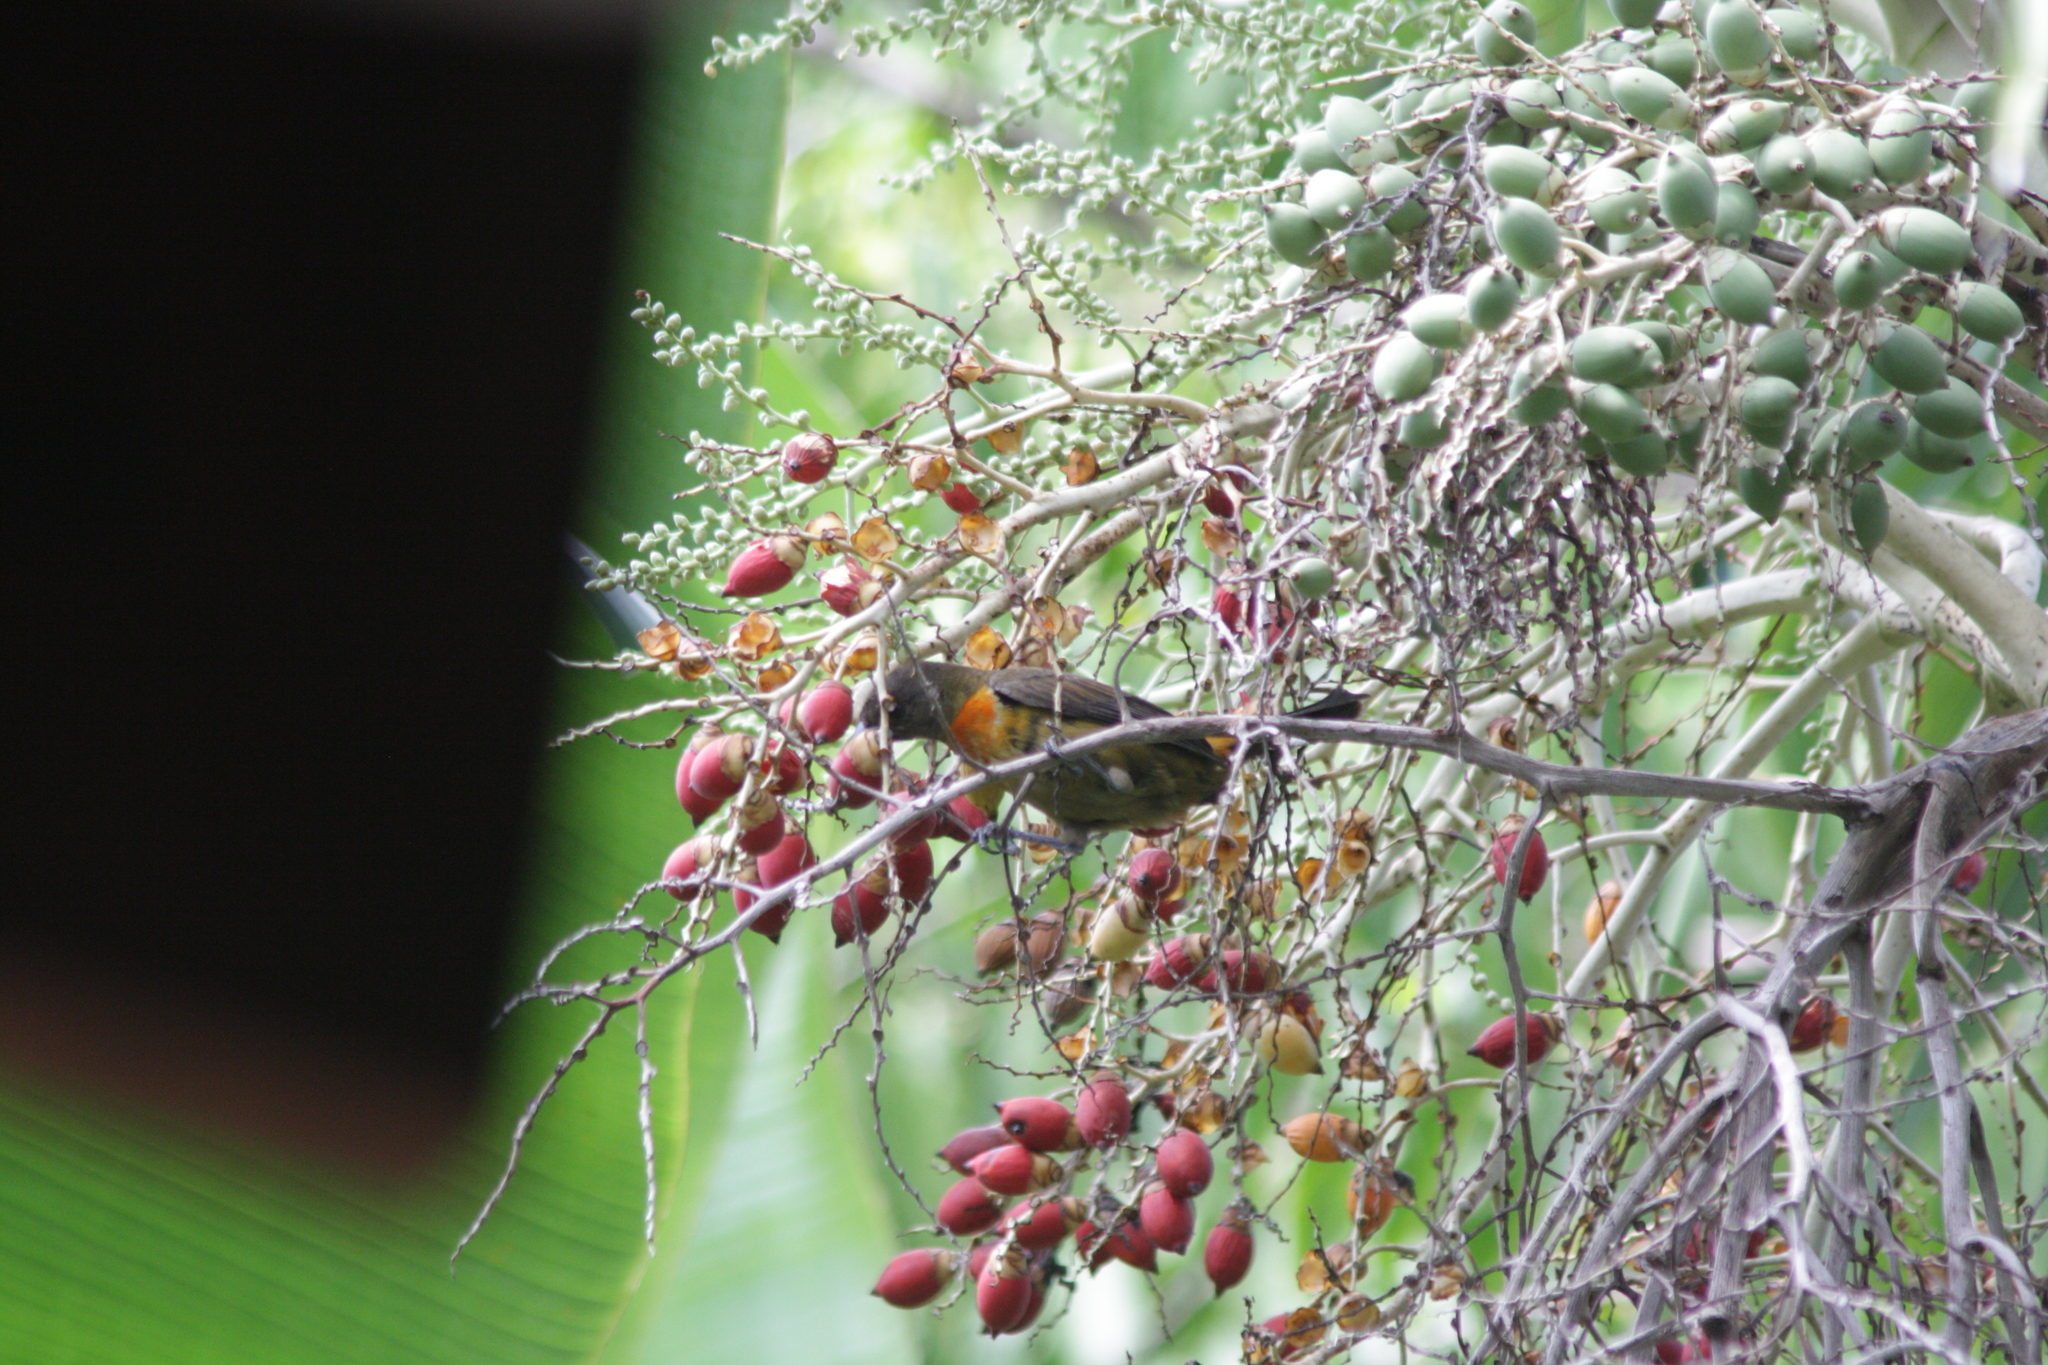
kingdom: Animalia
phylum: Chordata
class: Aves
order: Passeriformes
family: Thraupidae
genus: Ramphocelus
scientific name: Ramphocelus passerinii
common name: Passerini's tanager
